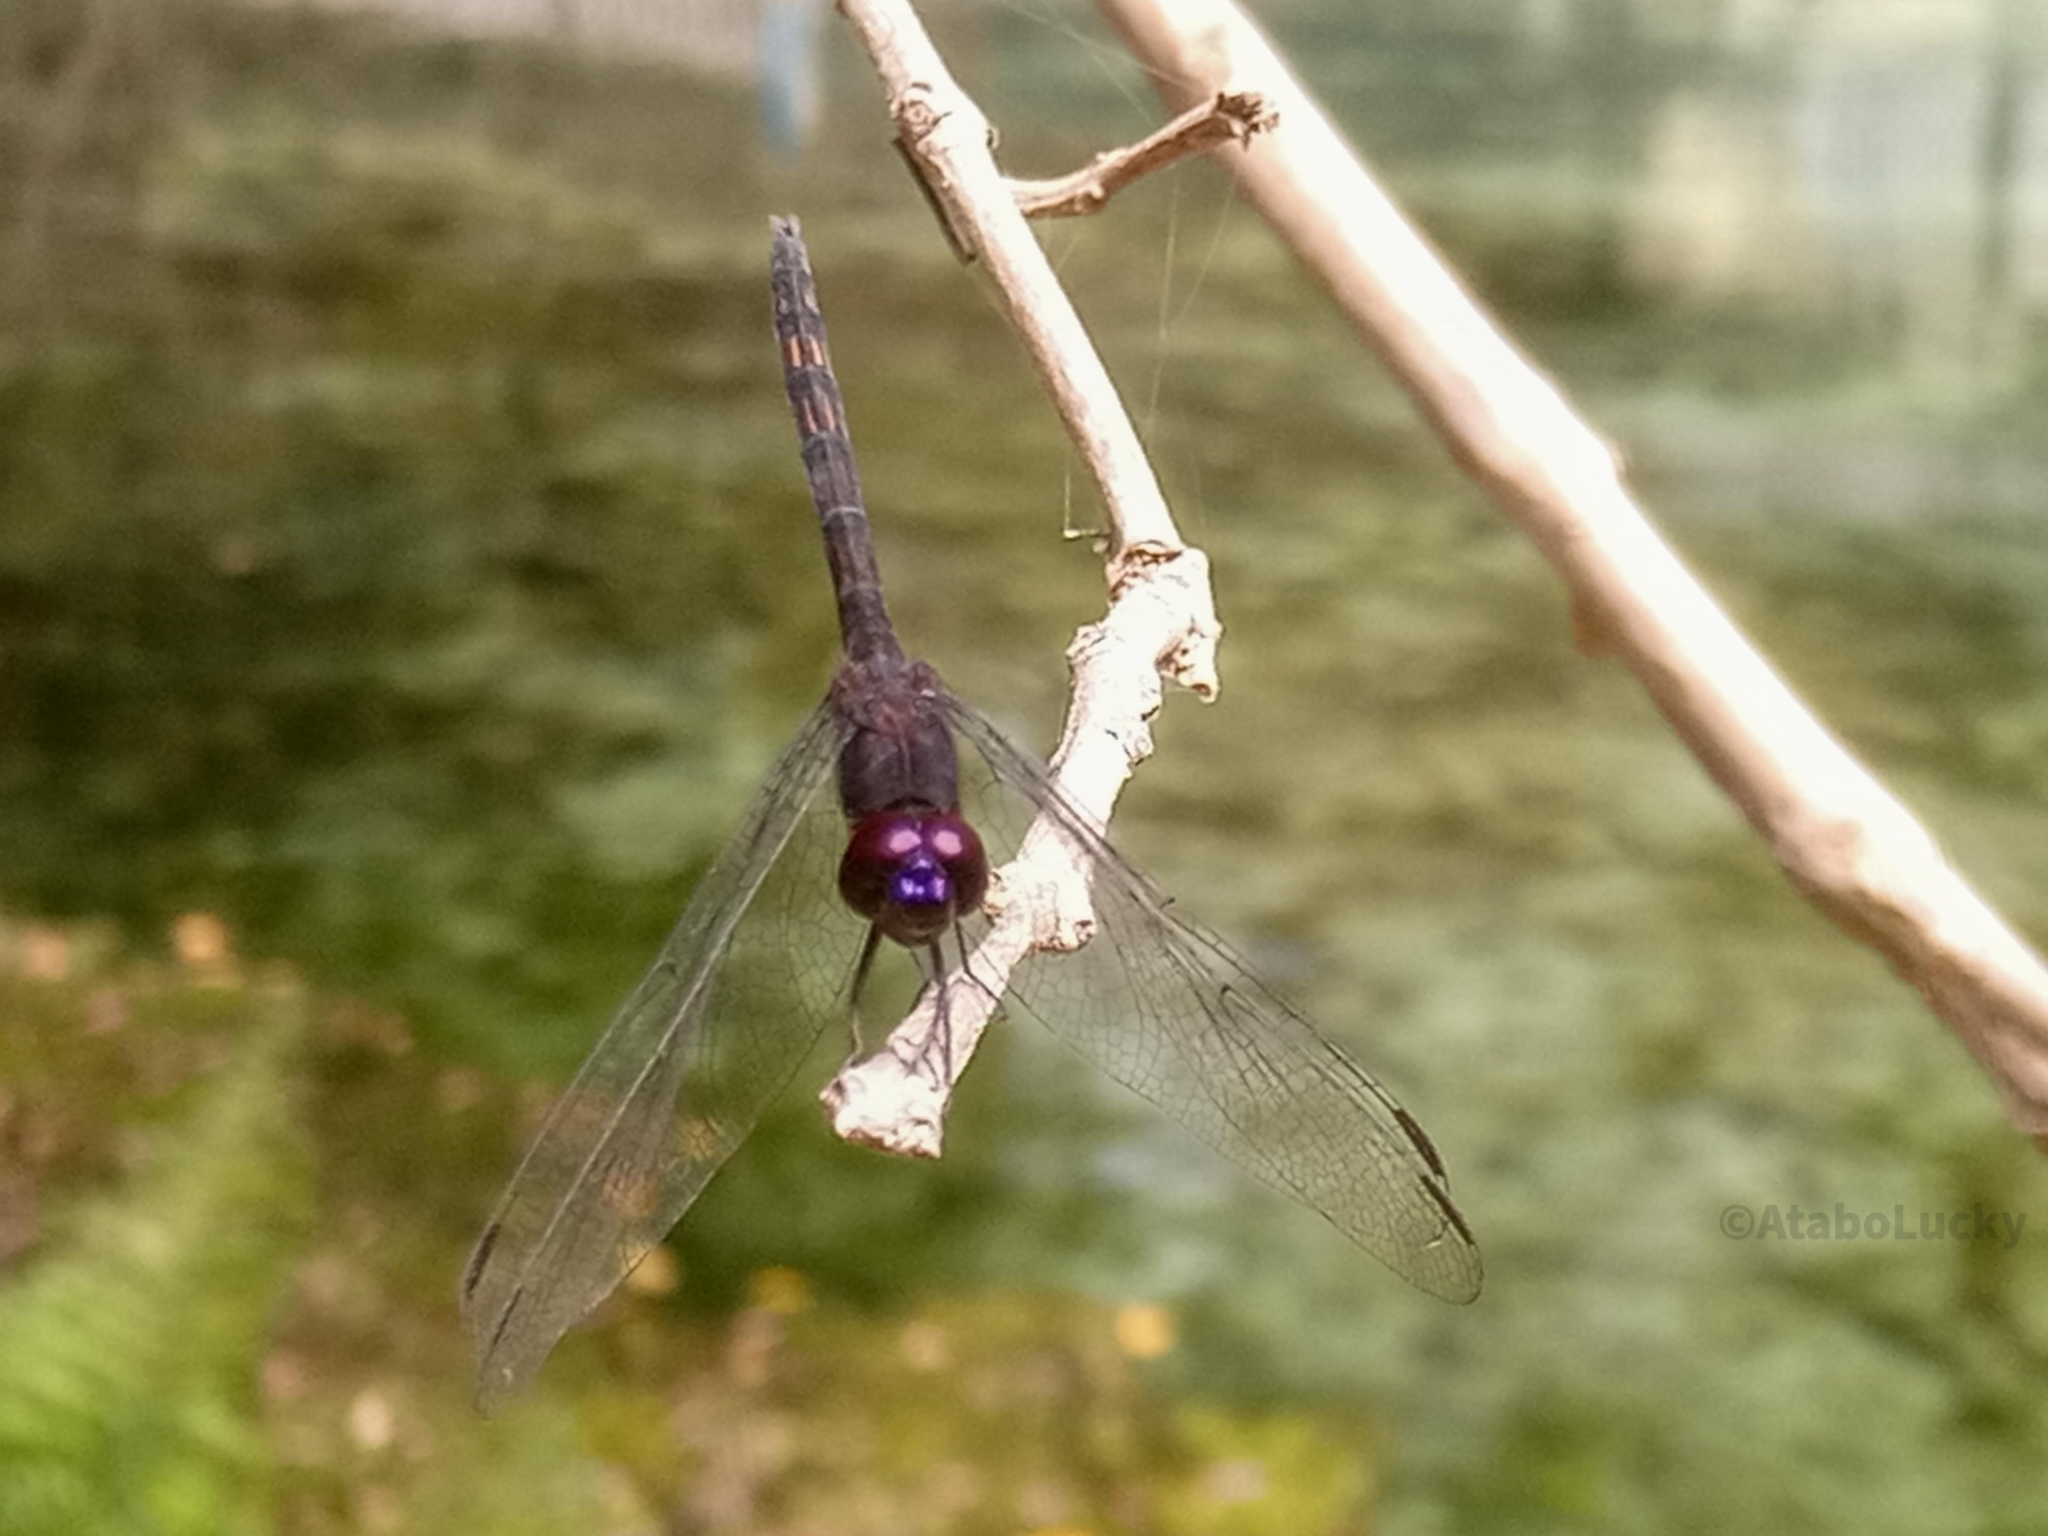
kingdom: Animalia
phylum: Arthropoda
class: Insecta
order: Odonata
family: Libellulidae
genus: Trithemis
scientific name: Trithemis grouti
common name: Dark dropwing
